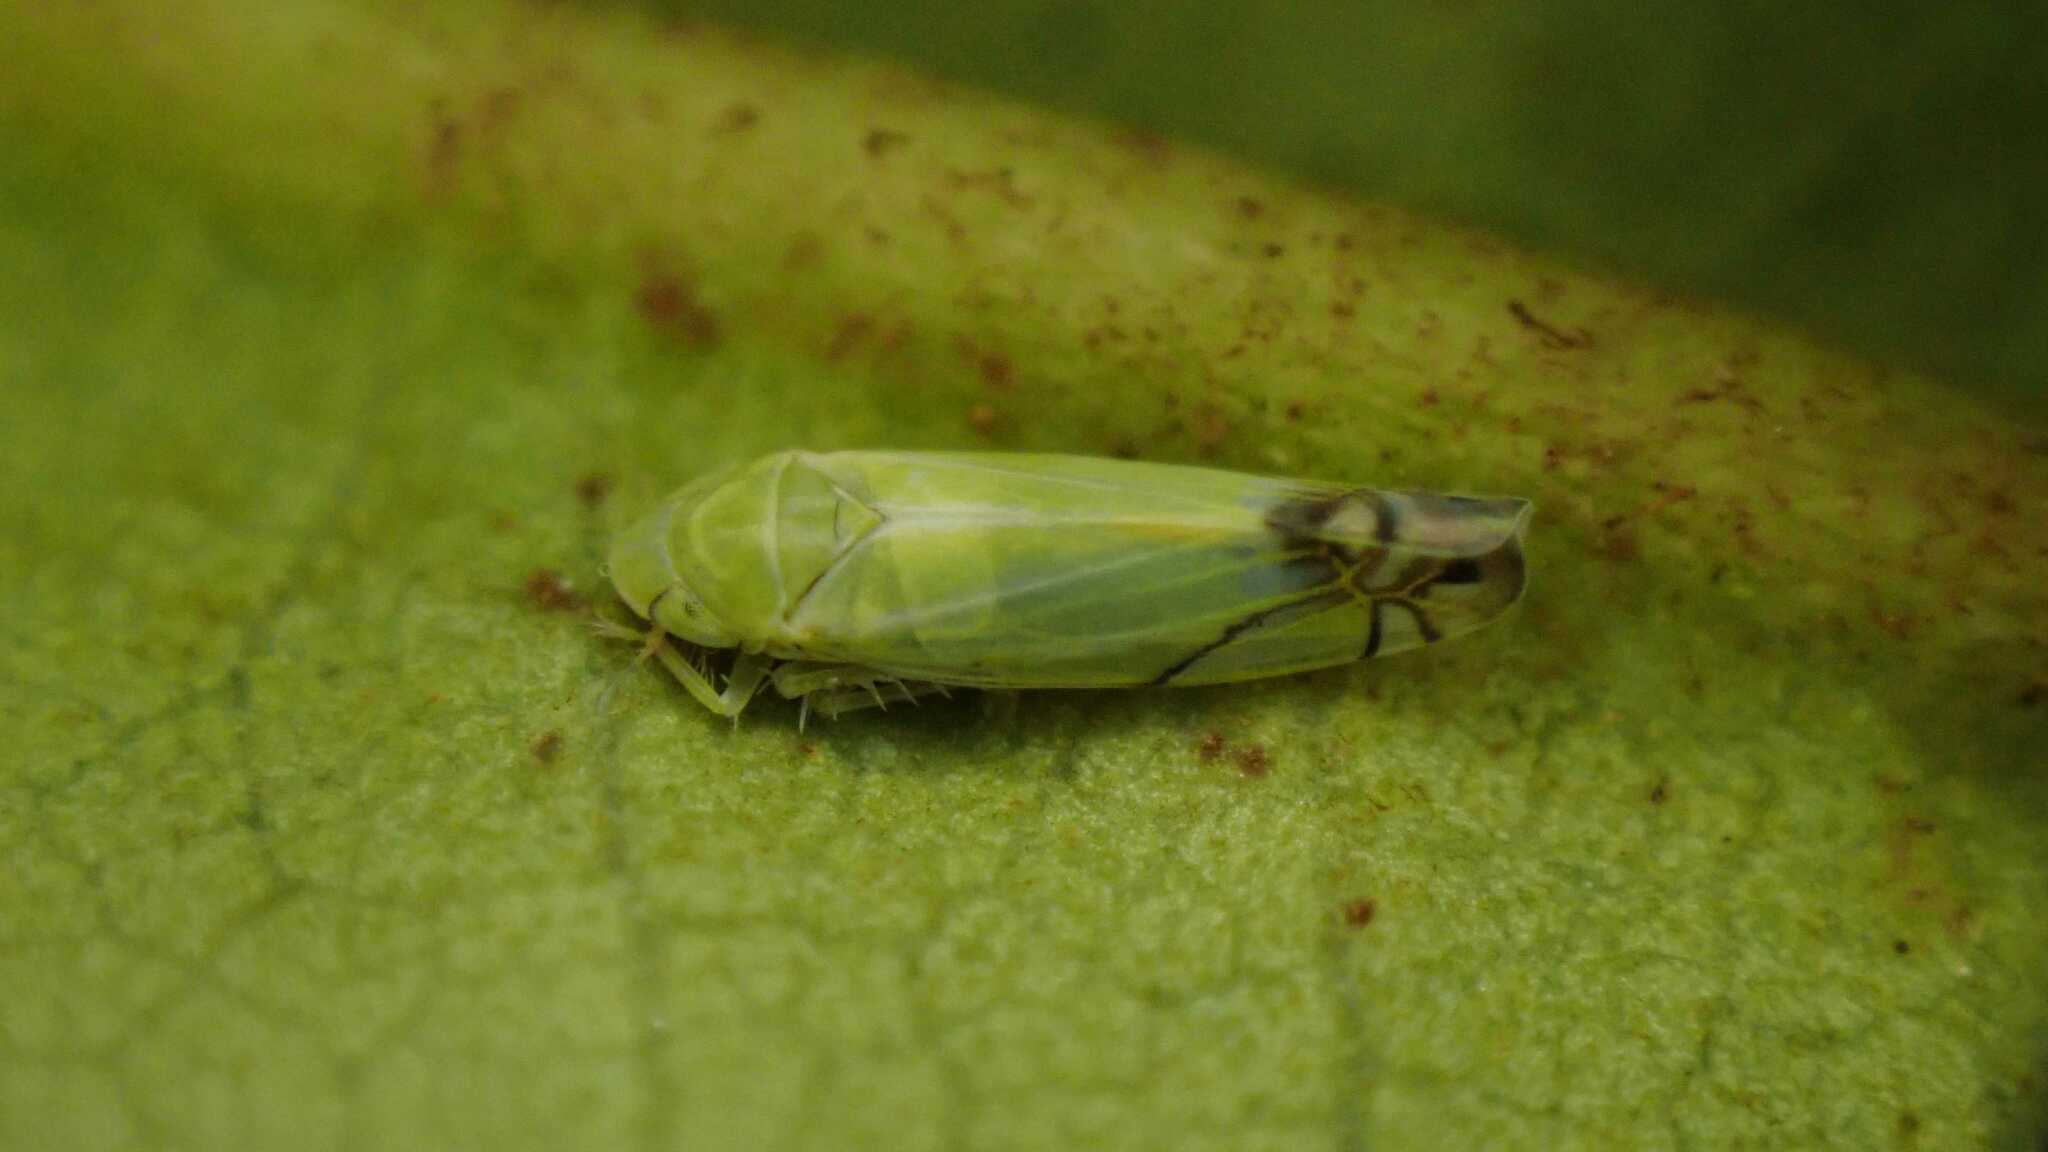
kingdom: Animalia
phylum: Arthropoda
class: Insecta
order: Hemiptera
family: Cicadellidae
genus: Zyginella
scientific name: Zyginella pulchra
